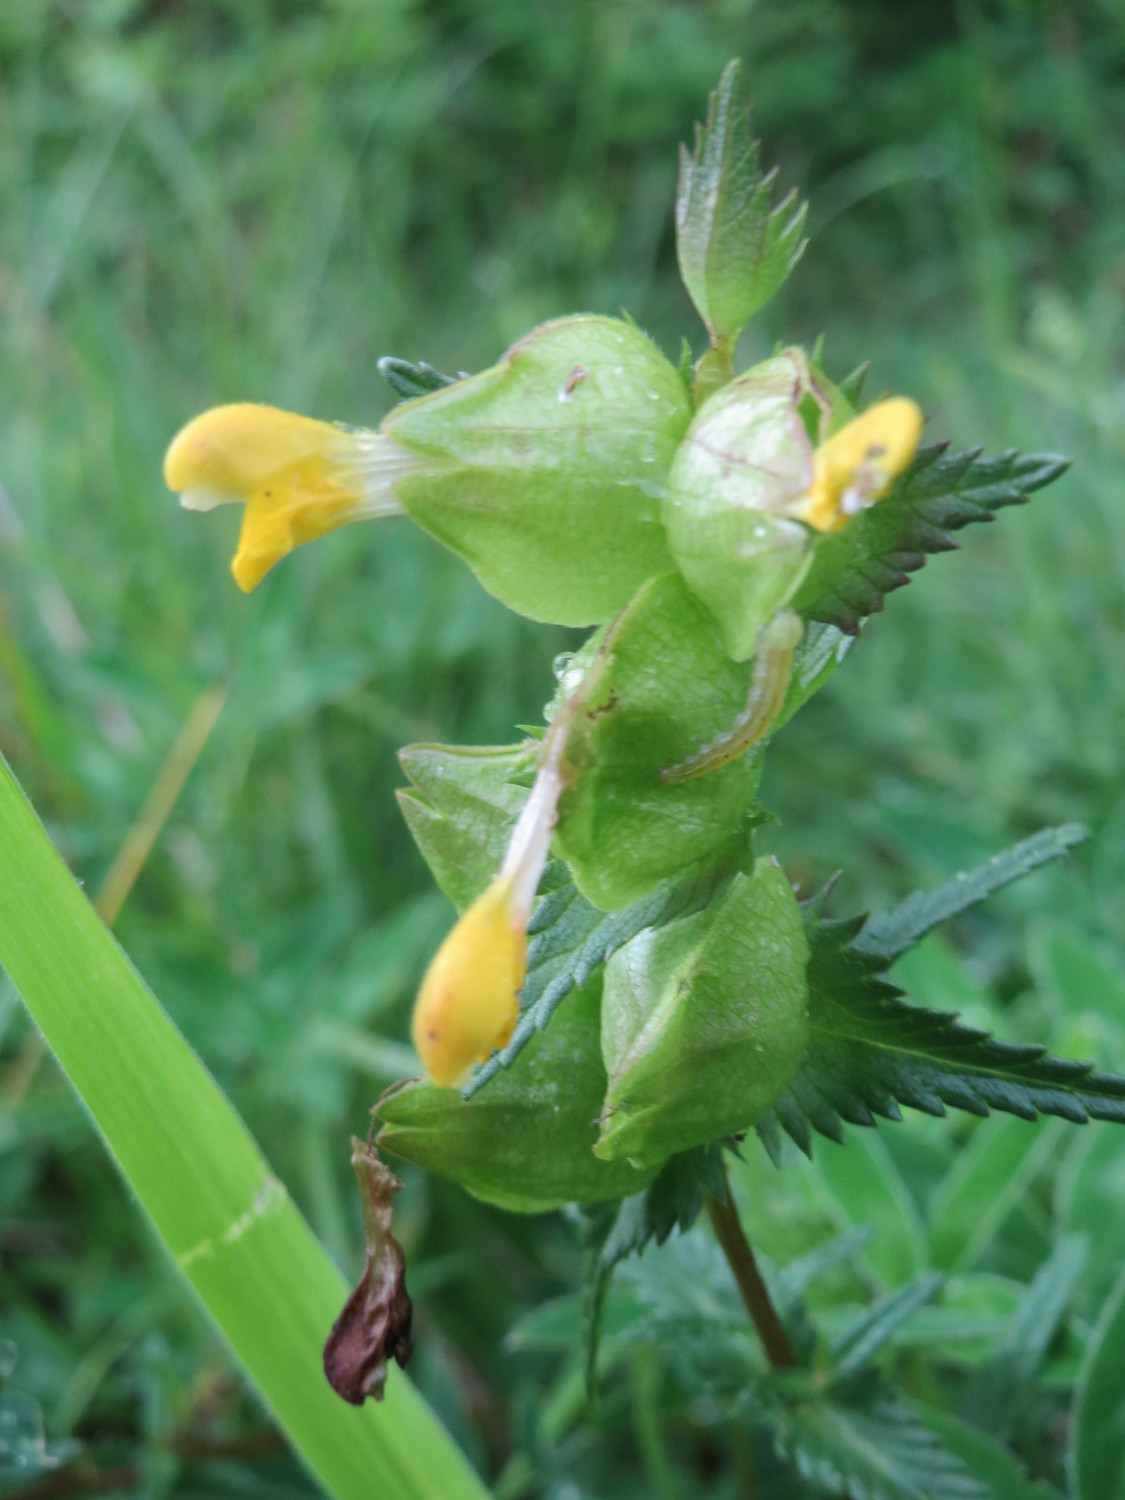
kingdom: Plantae
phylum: Tracheophyta
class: Magnoliopsida
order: Lamiales
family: Orobanchaceae
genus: Rhinanthus
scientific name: Rhinanthus minor
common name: Yellow-rattle
